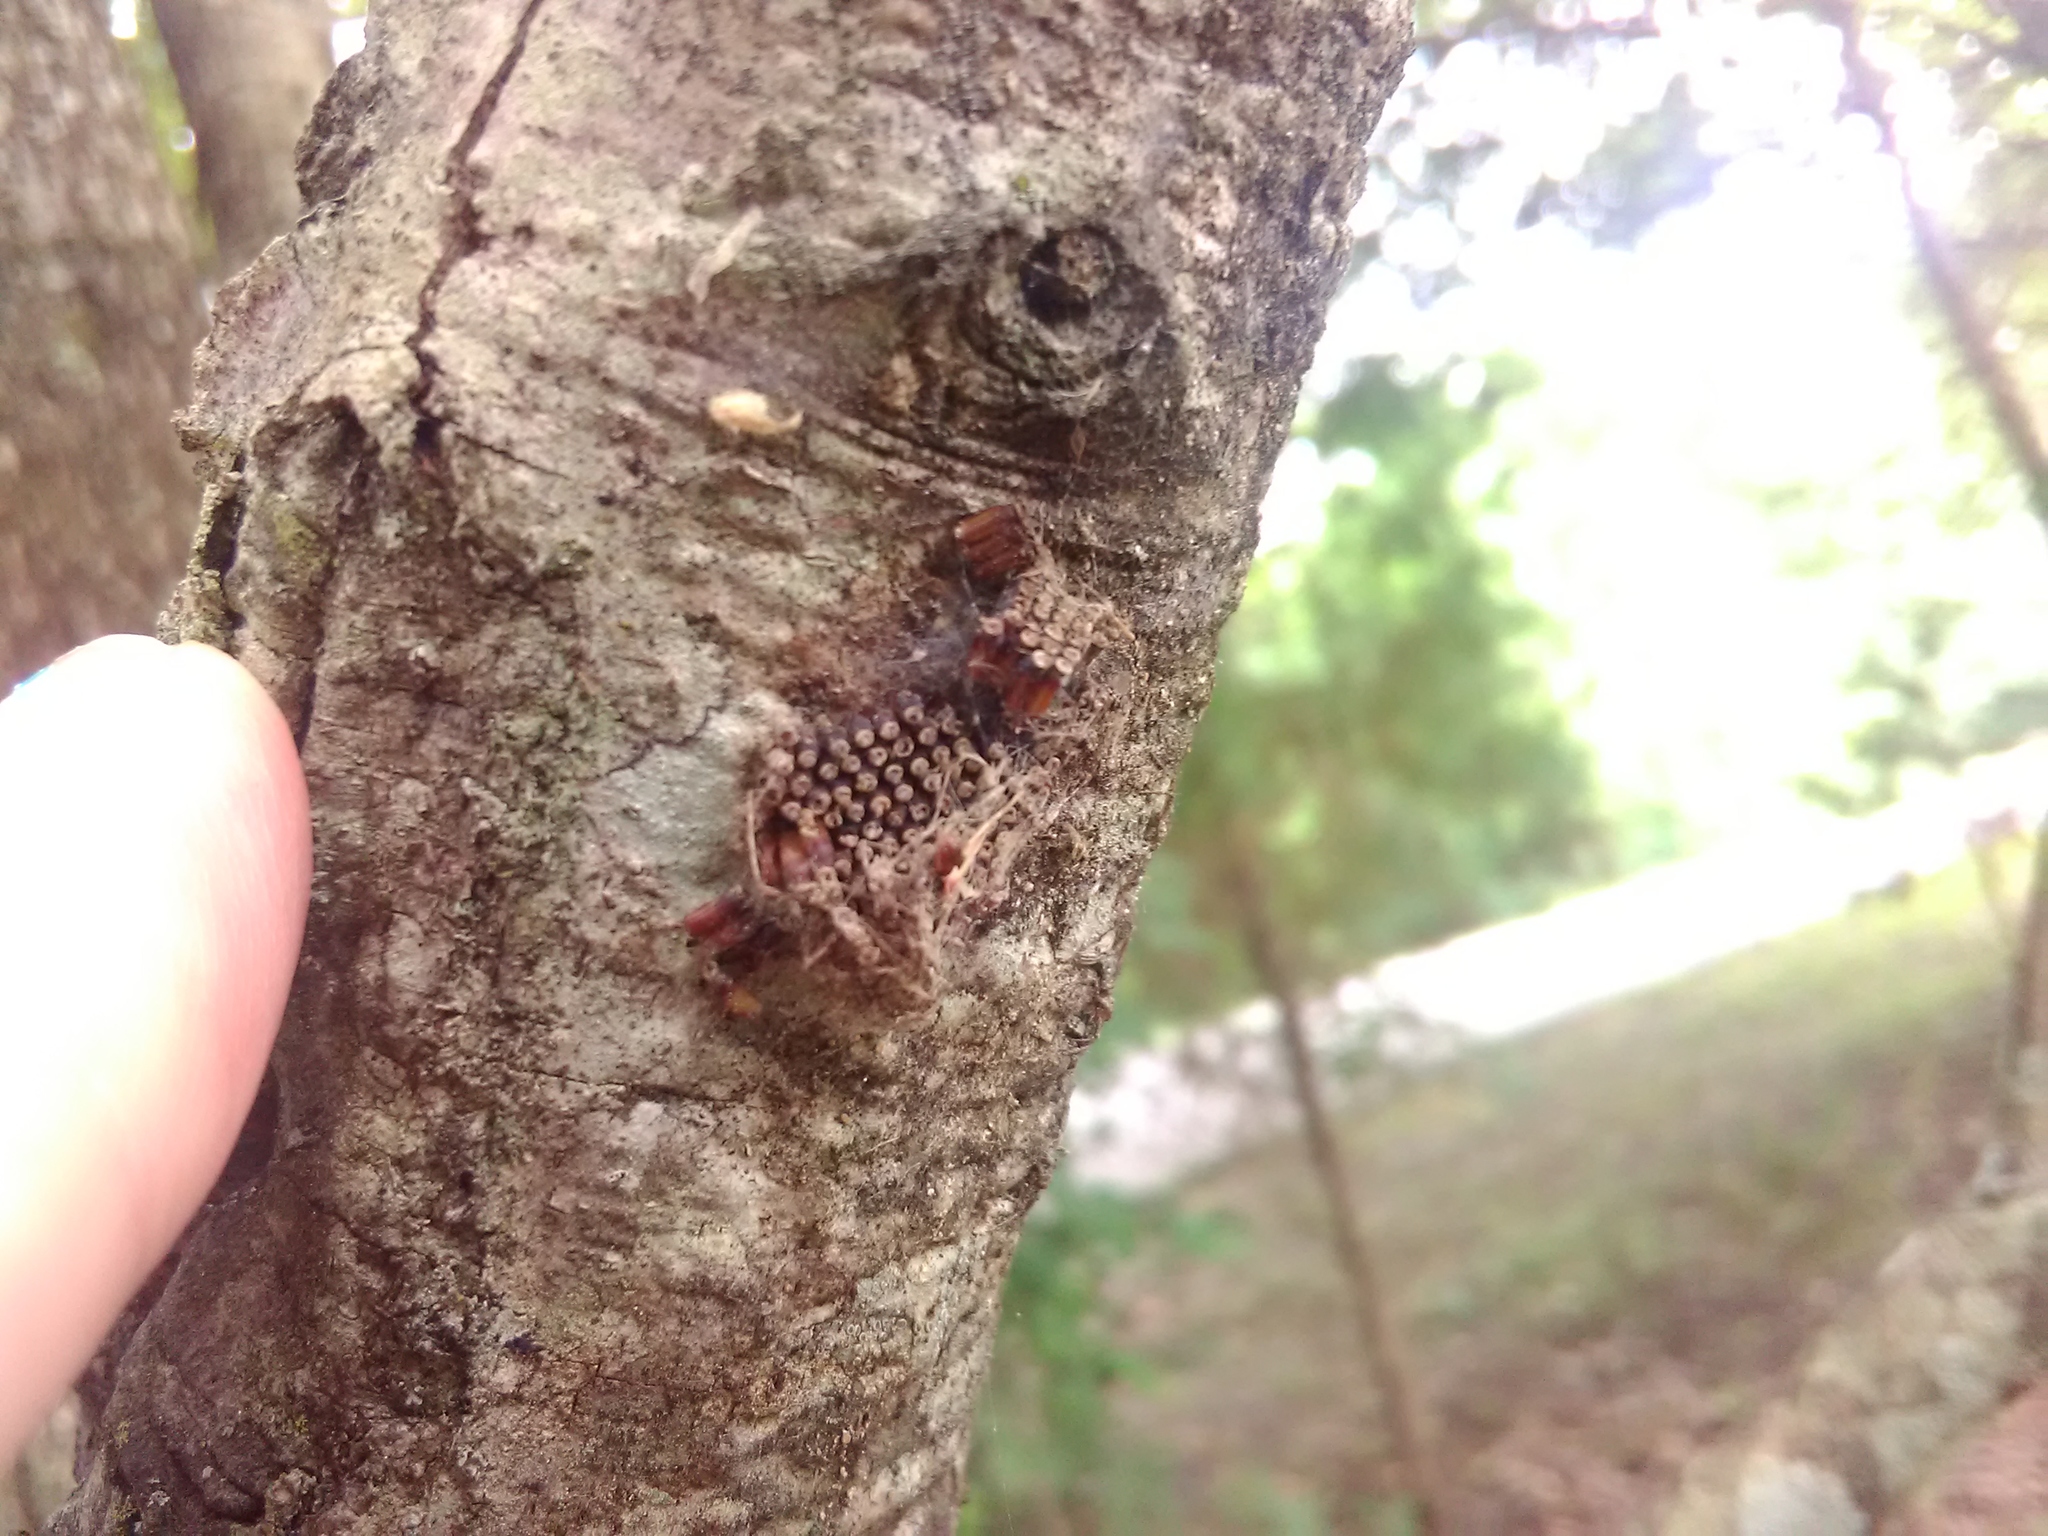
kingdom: Animalia
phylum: Arthropoda
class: Insecta
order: Hemiptera
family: Reduviidae
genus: Arilus
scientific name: Arilus cristatus
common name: North american wheel bug
